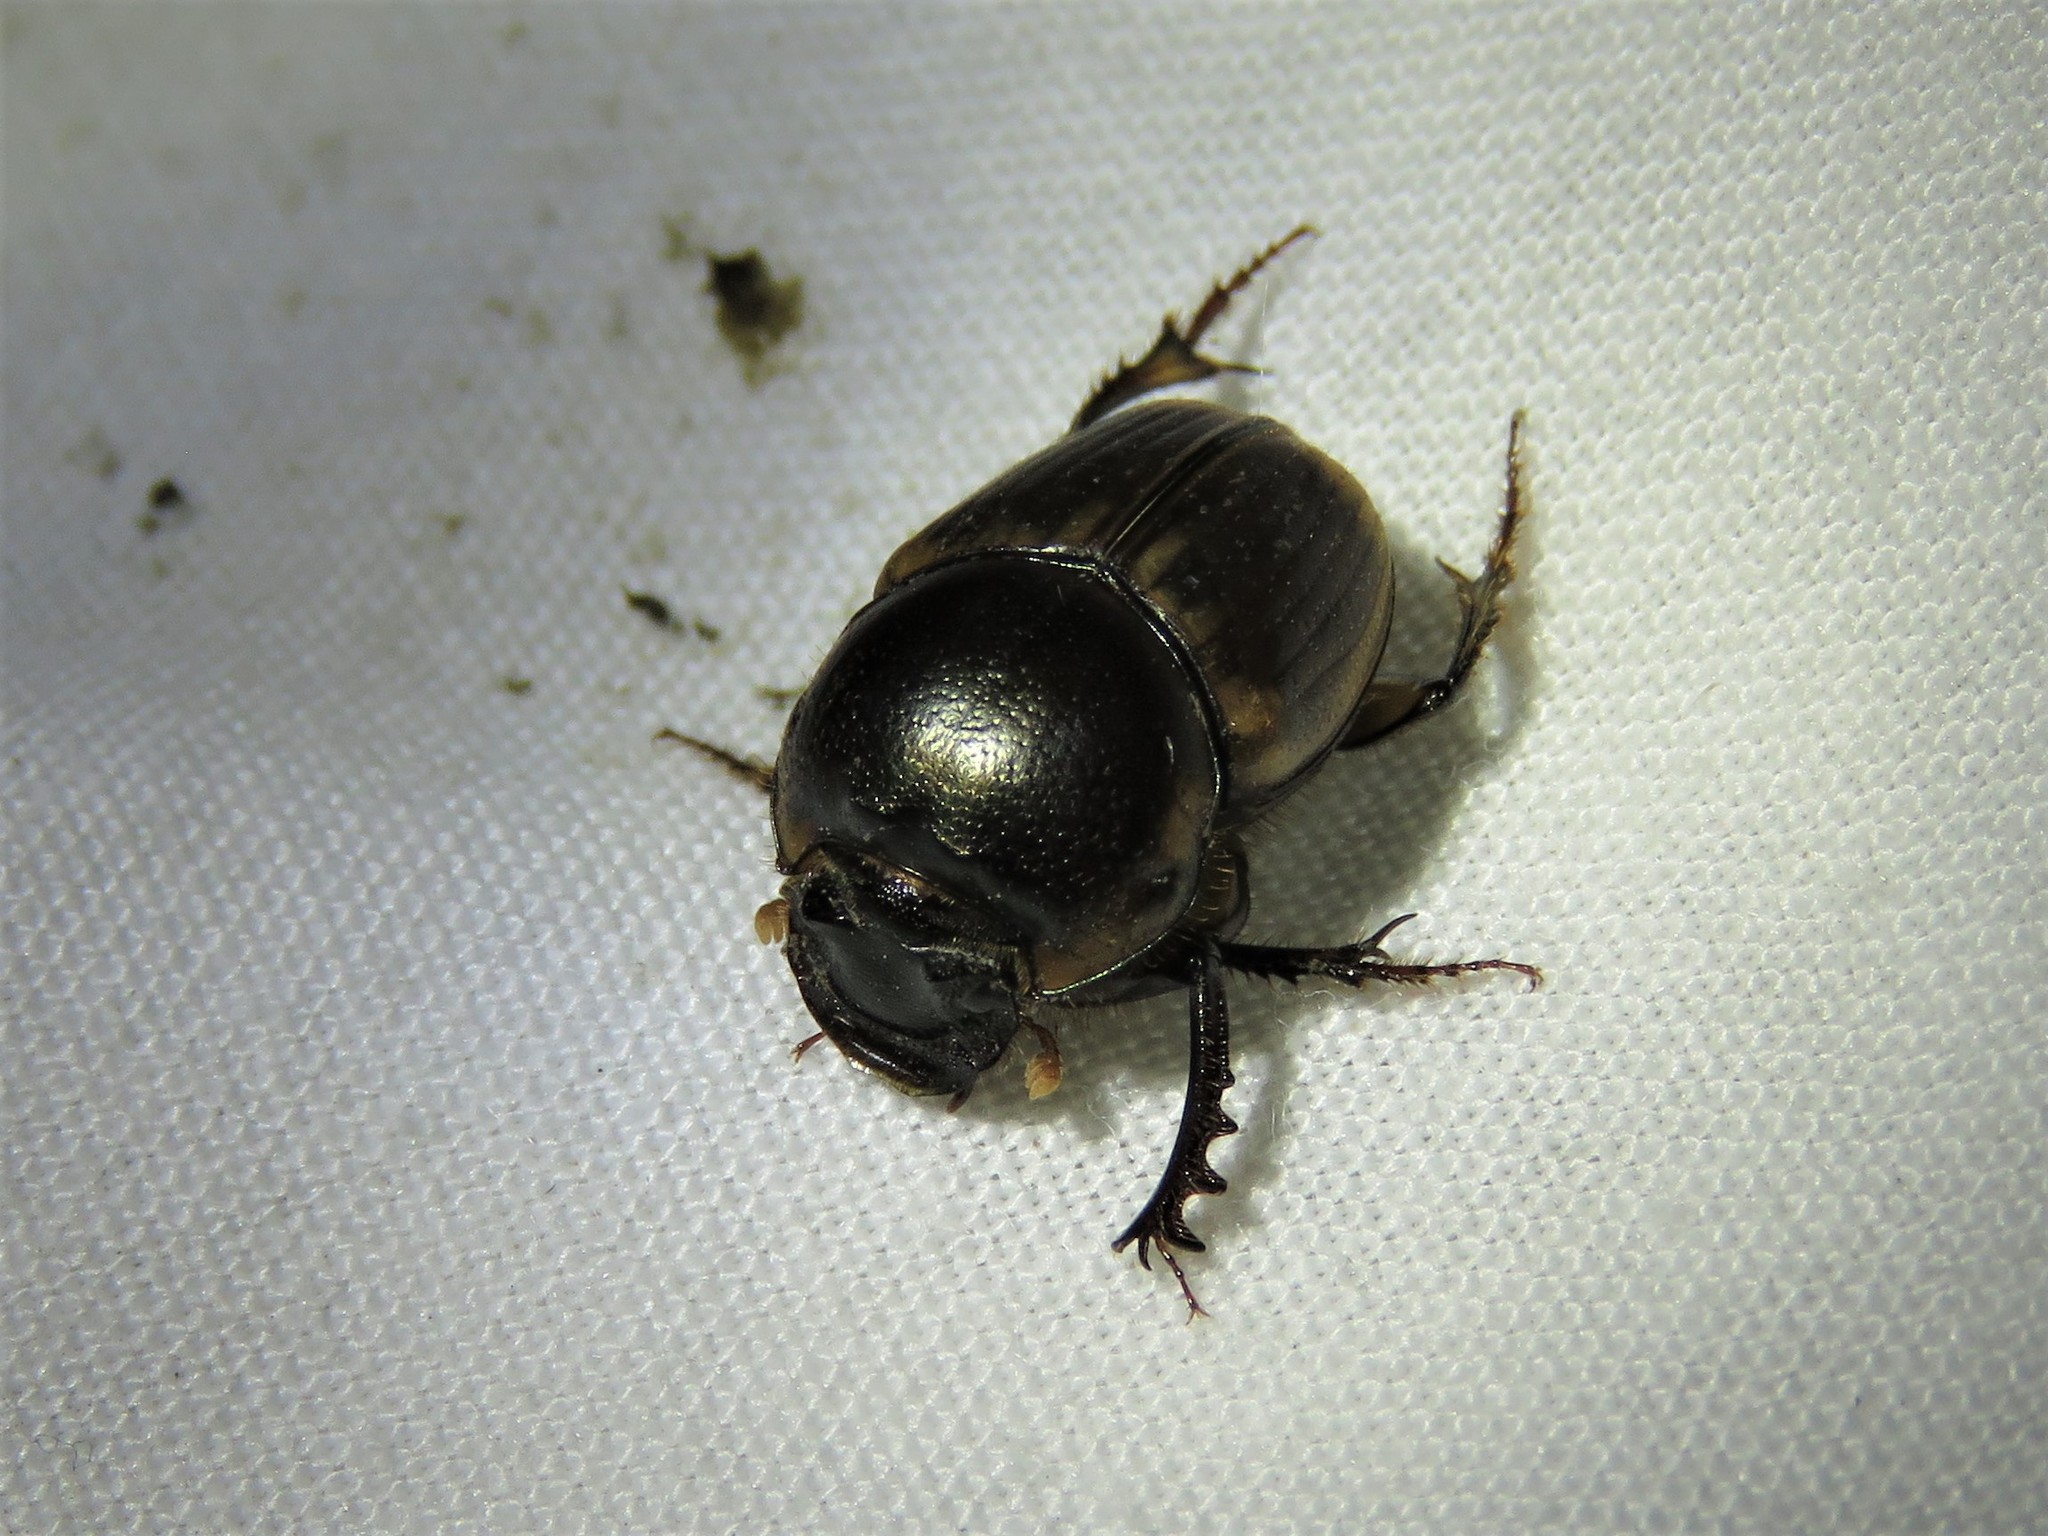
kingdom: Animalia
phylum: Arthropoda
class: Insecta
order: Coleoptera
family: Scarabaeidae
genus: Digitonthophagus
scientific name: Digitonthophagus gazella
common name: Brown dung beetle
